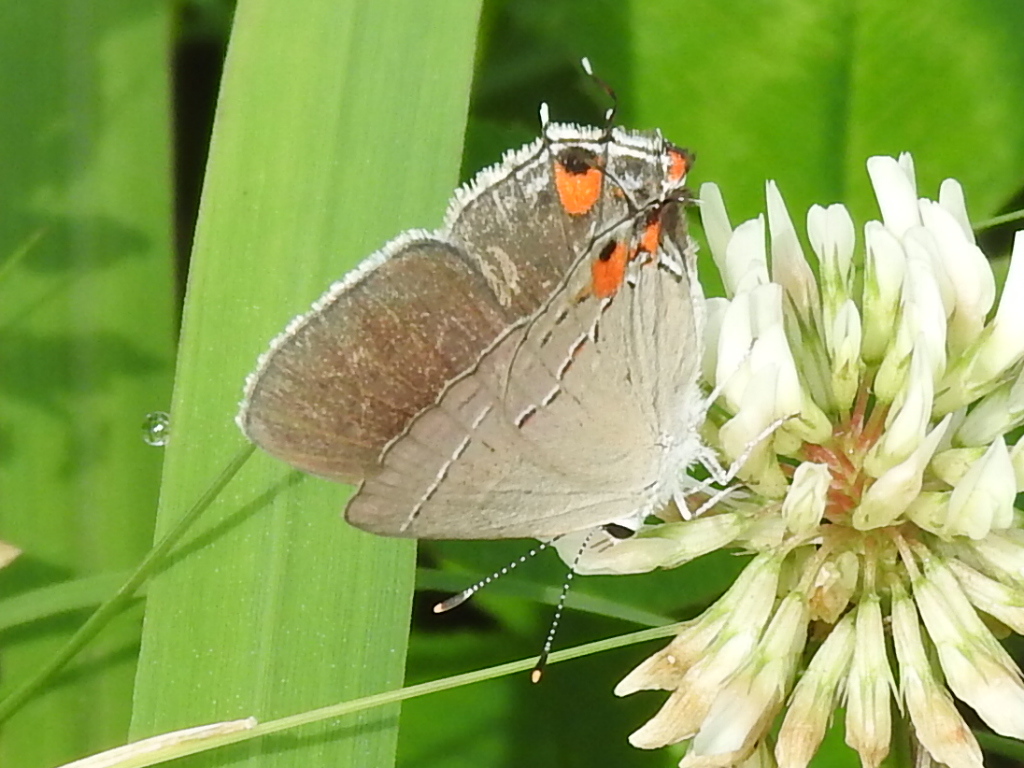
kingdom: Animalia
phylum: Arthropoda
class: Insecta
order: Lepidoptera
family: Lycaenidae
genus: Strymon
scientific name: Strymon melinus
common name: Gray hairstreak
